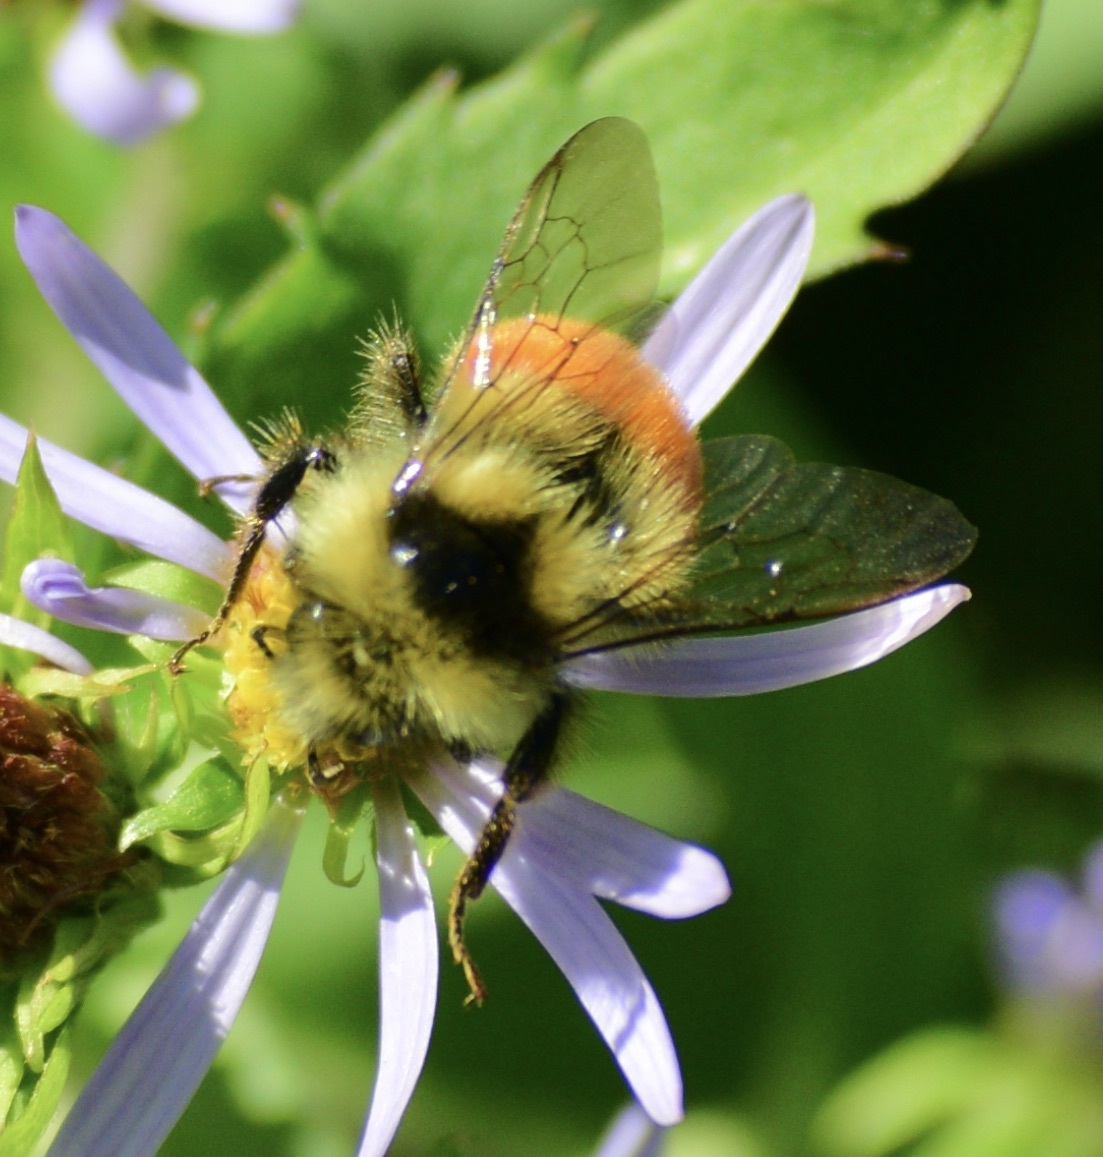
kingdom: Animalia
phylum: Arthropoda
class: Insecta
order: Hymenoptera
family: Apidae
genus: Bombus
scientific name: Bombus ternarius
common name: Tri-colored bumble bee
